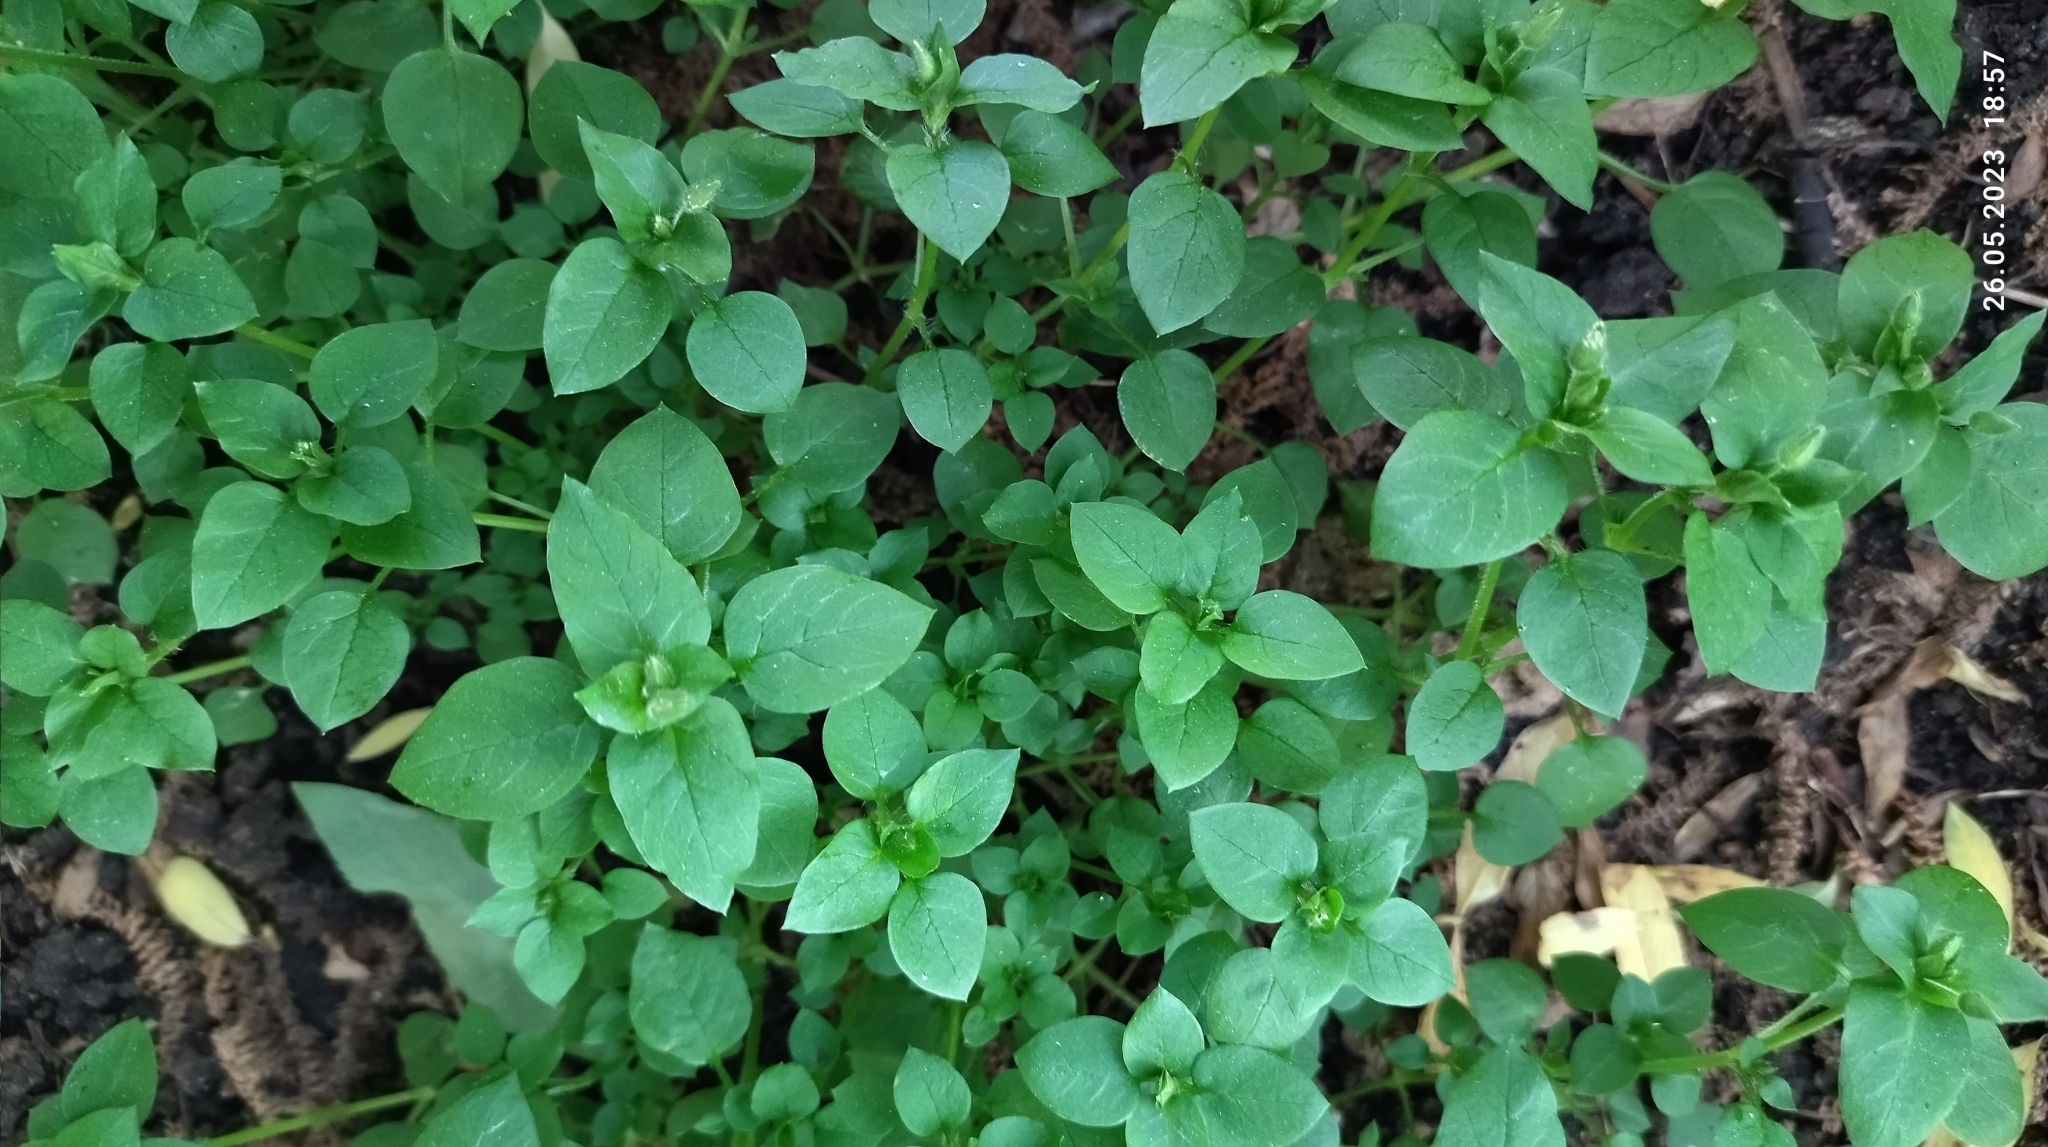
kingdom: Plantae
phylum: Tracheophyta
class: Magnoliopsida
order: Caryophyllales
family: Caryophyllaceae
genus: Stellaria
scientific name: Stellaria media
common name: Common chickweed
